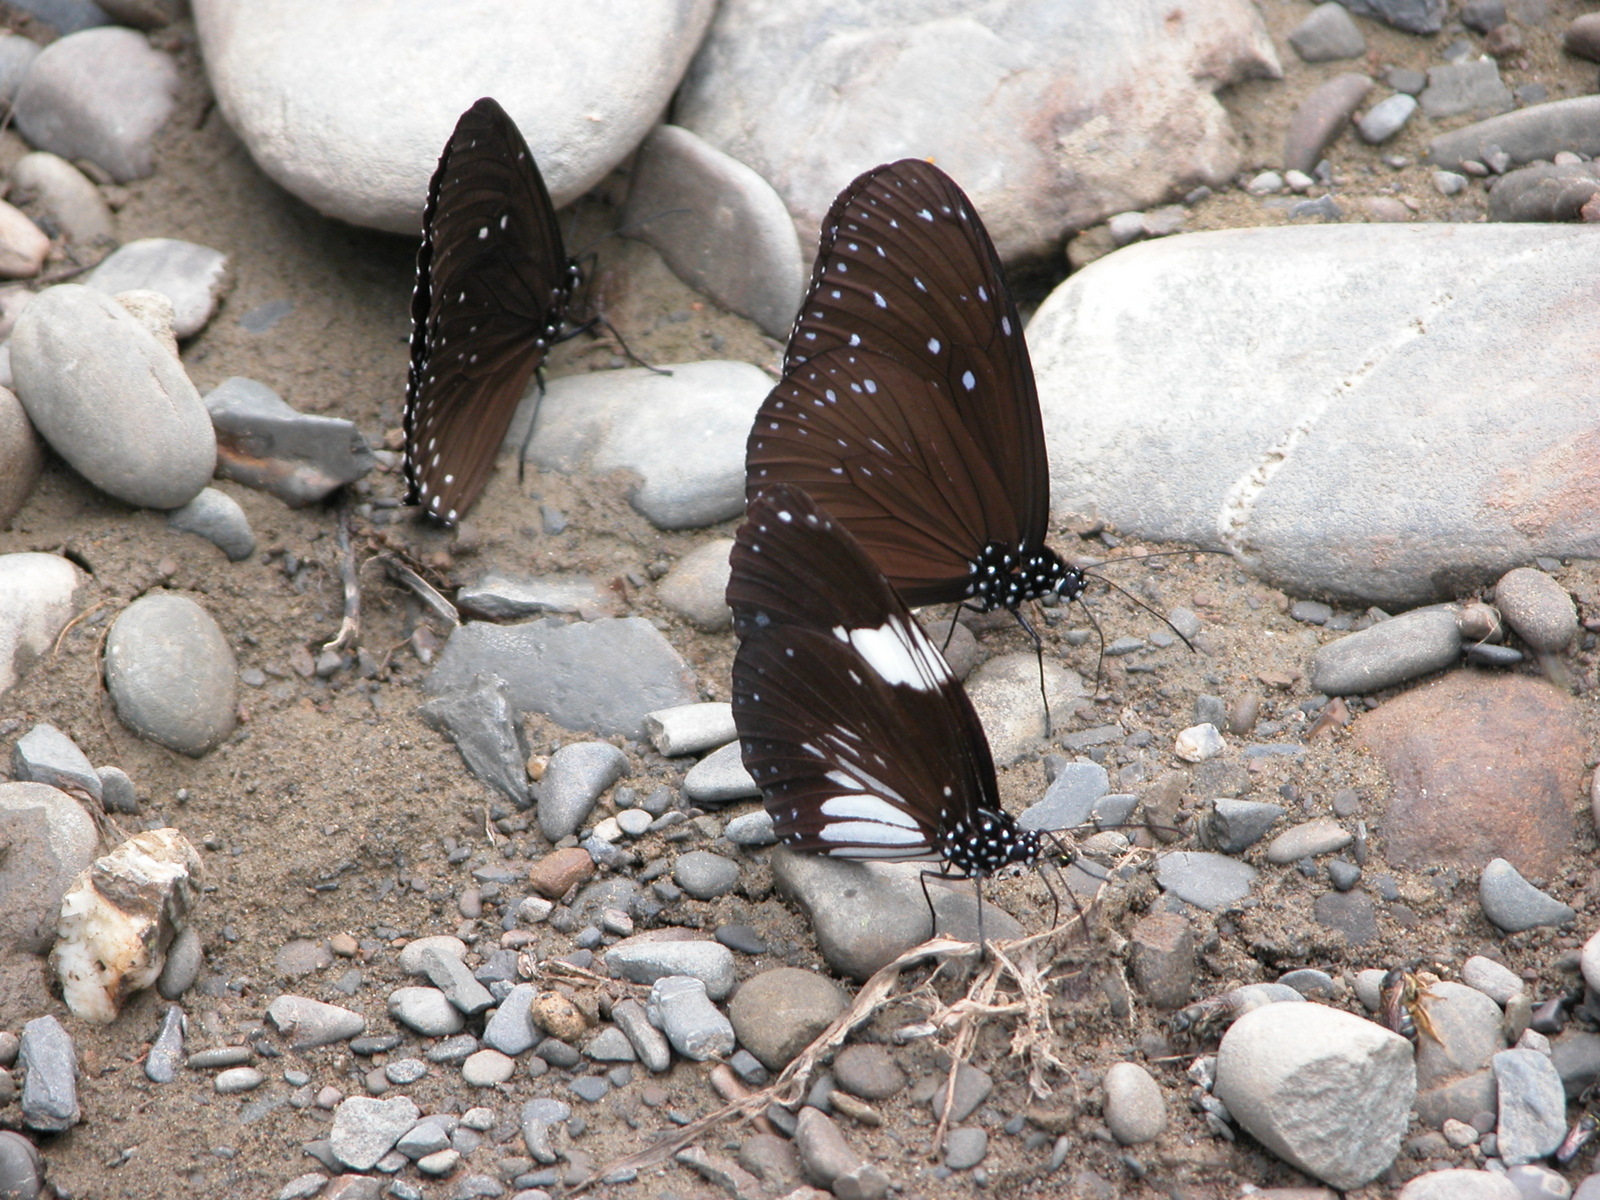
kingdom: Animalia
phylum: Arthropoda
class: Insecta
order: Lepidoptera
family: Nymphalidae
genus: Euploea
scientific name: Euploea radamanthus
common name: Magpie crow butterfly
